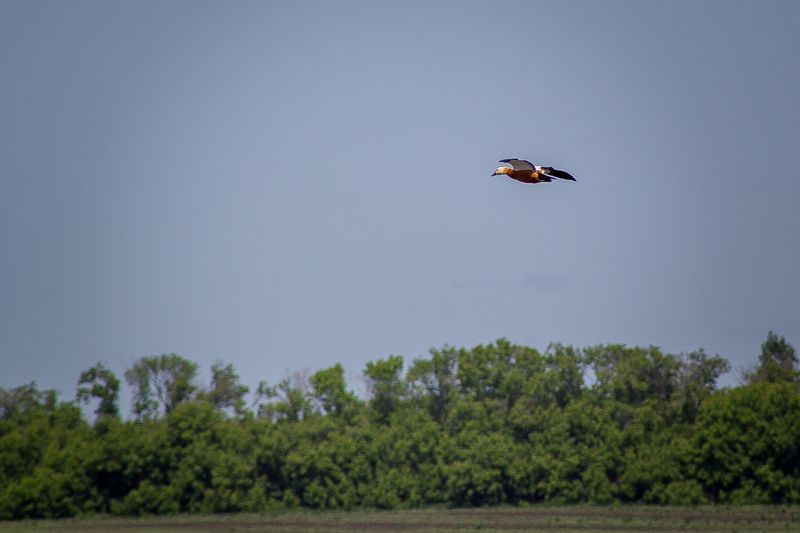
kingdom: Animalia
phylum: Chordata
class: Aves
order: Anseriformes
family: Anatidae
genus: Tadorna
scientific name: Tadorna ferruginea
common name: Ruddy shelduck
